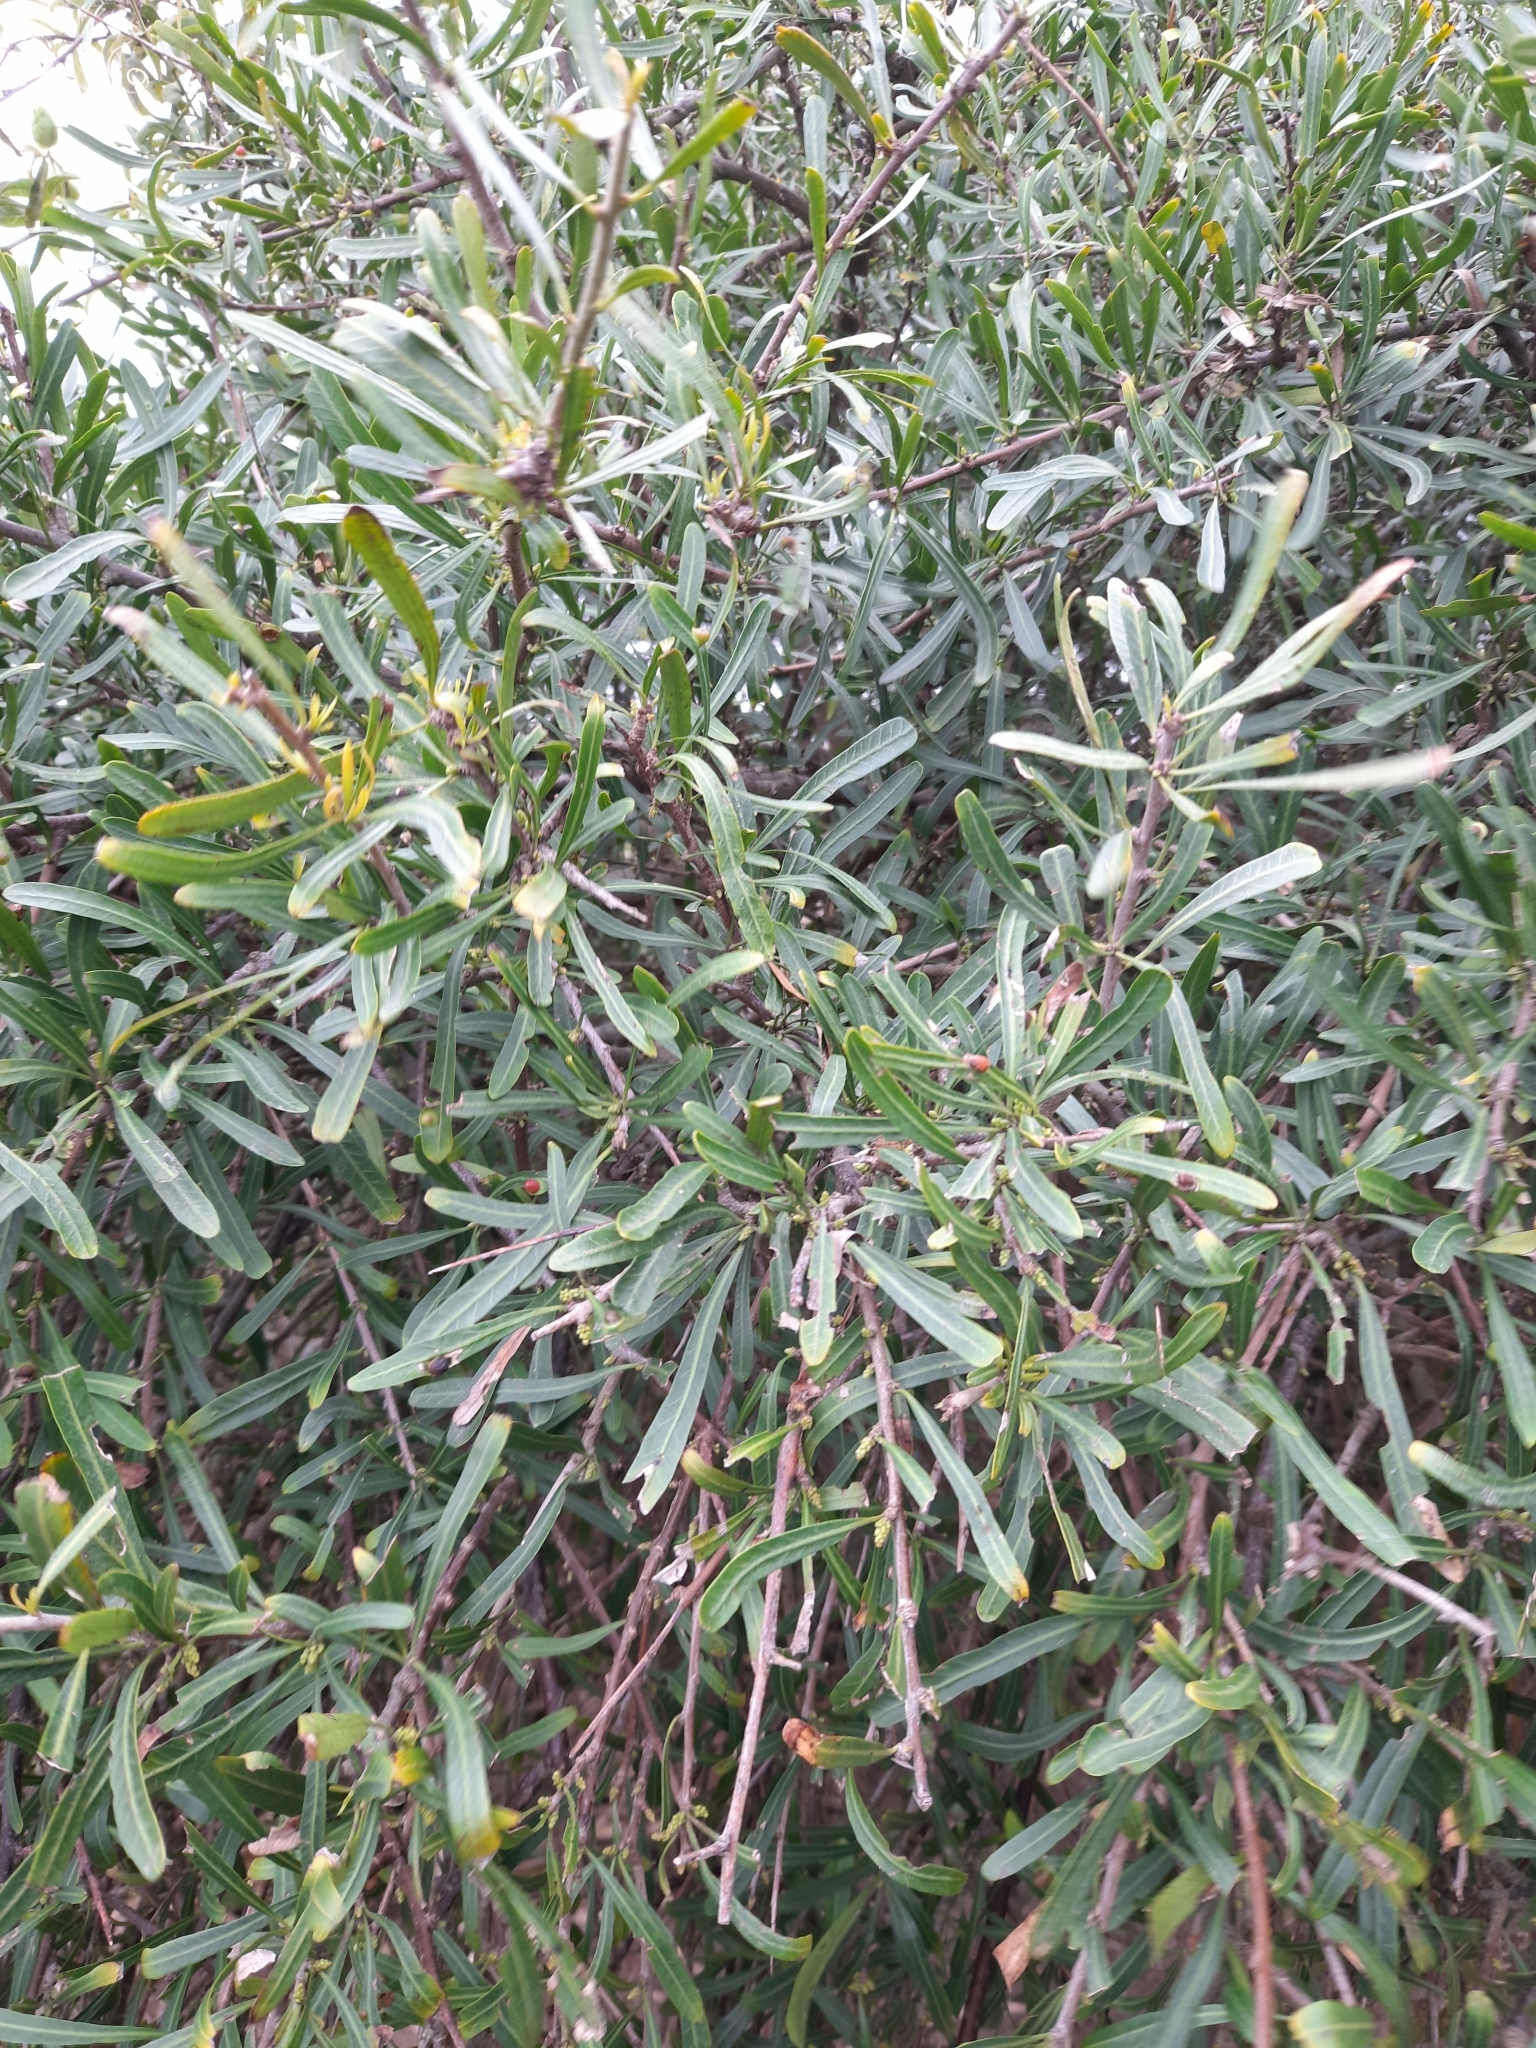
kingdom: Plantae
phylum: Tracheophyta
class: Magnoliopsida
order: Sapindales
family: Anacardiaceae
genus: Schinus
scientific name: Schinus longifolia
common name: Longleaf peppertree
